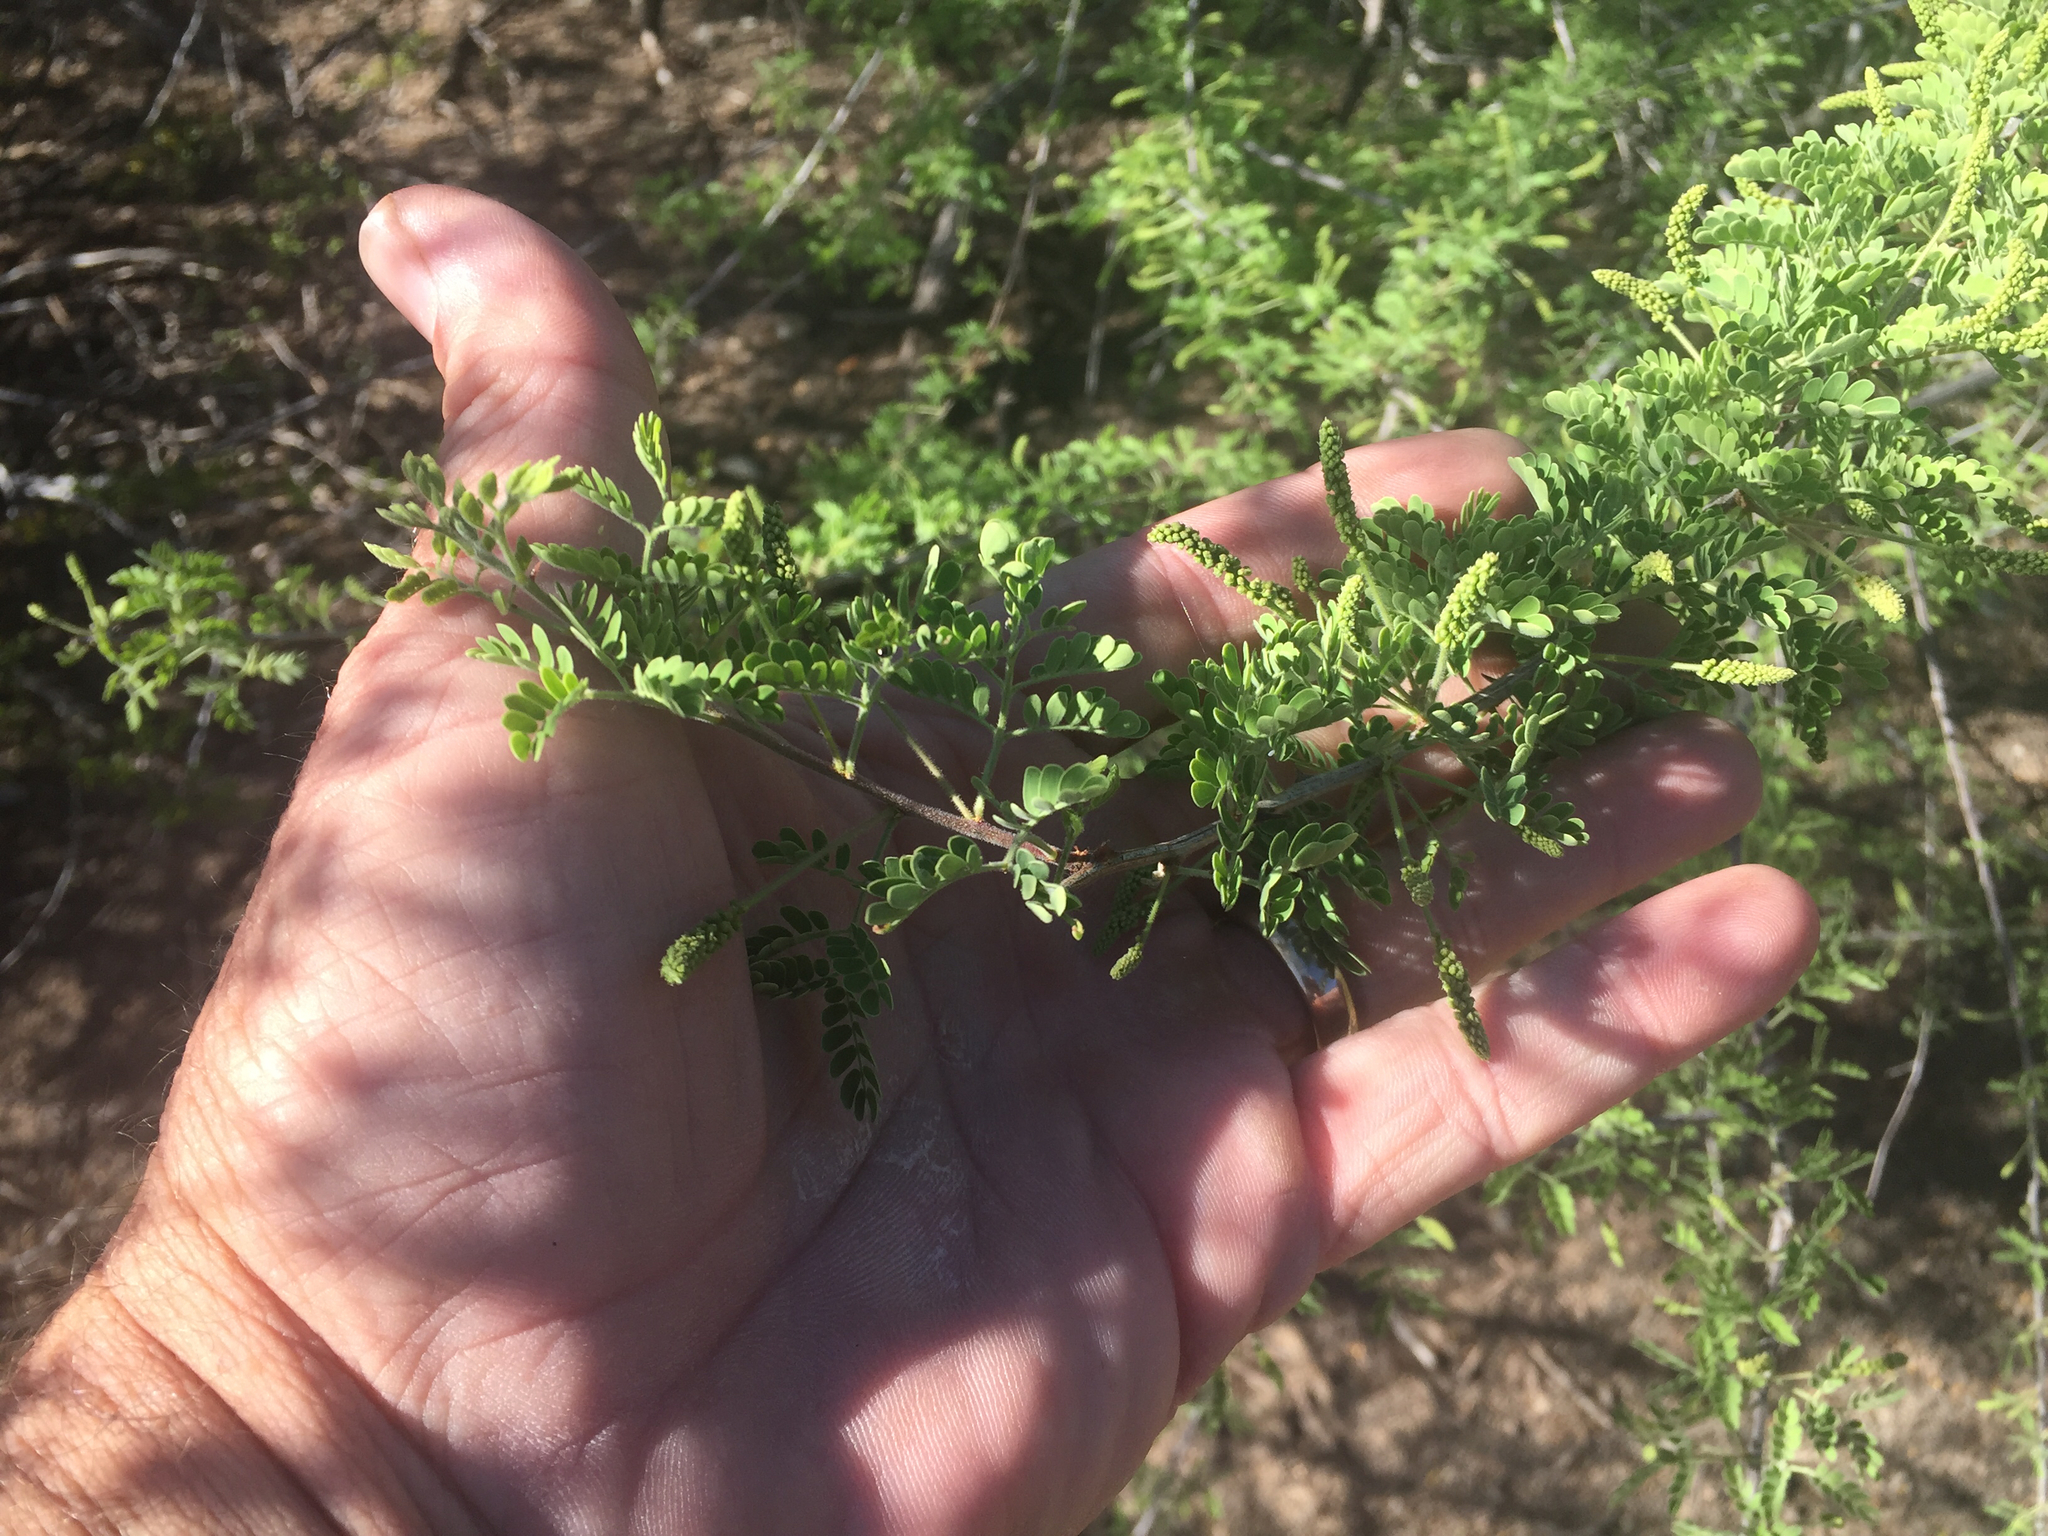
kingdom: Plantae
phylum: Tracheophyta
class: Magnoliopsida
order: Fabales
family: Fabaceae
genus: Senegalia
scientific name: Senegalia greggii
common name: Texas-mimosa
